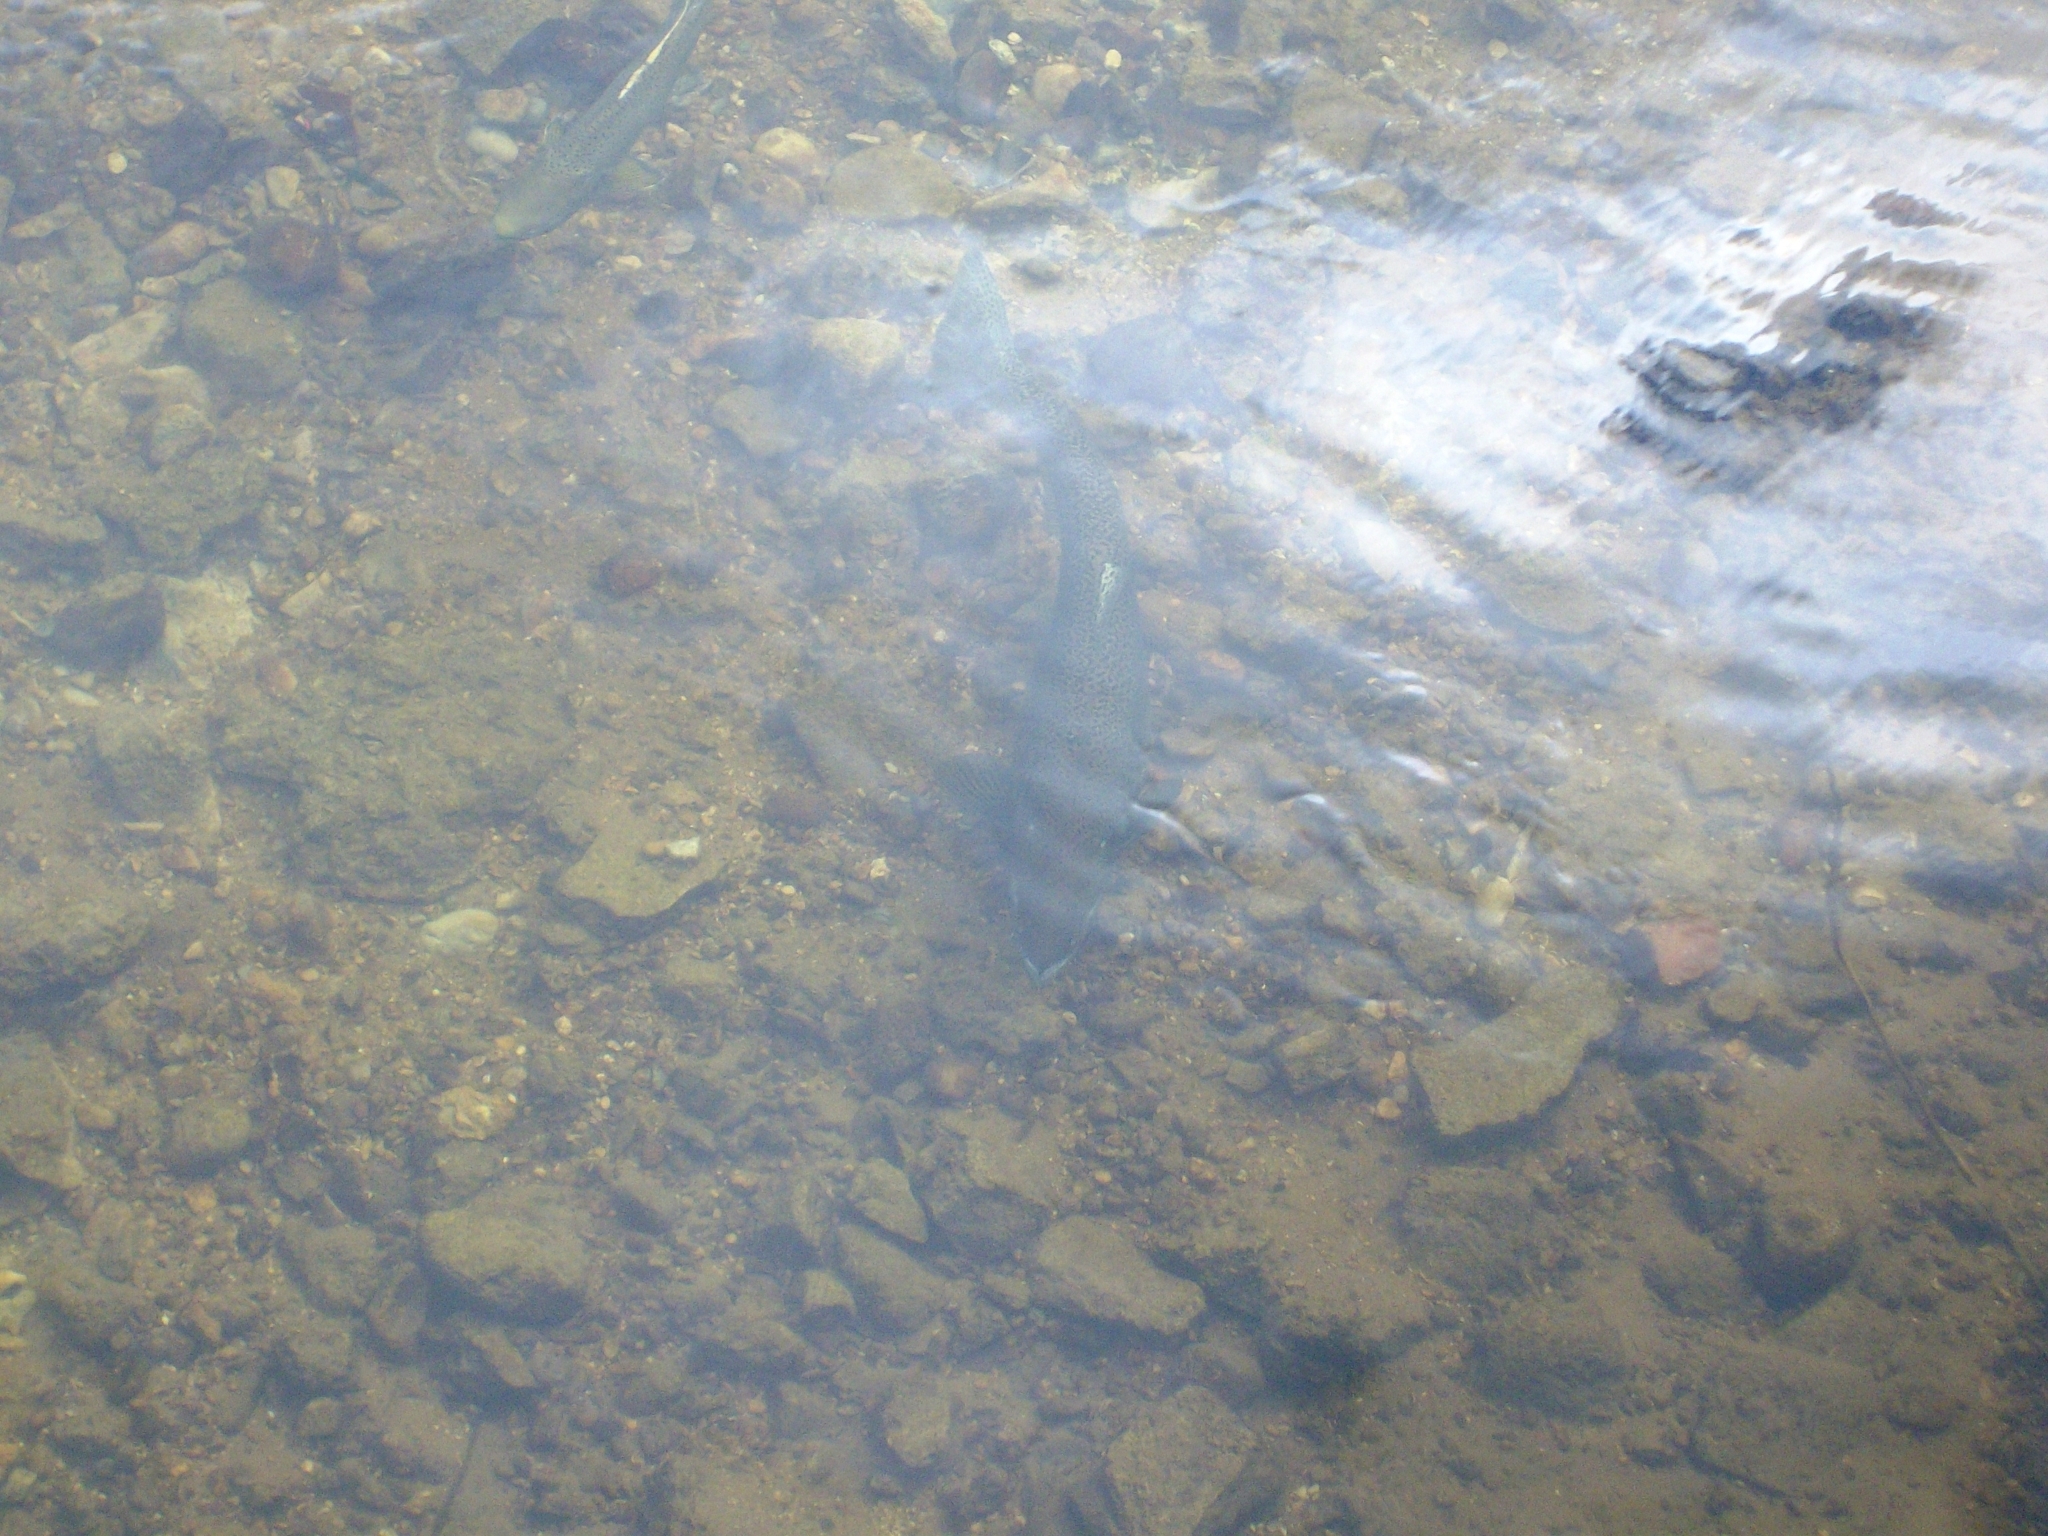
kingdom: Animalia
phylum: Chordata
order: Salmoniformes
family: Salmonidae
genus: Oncorhynchus
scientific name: Oncorhynchus mykiss
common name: Rainbow trout
